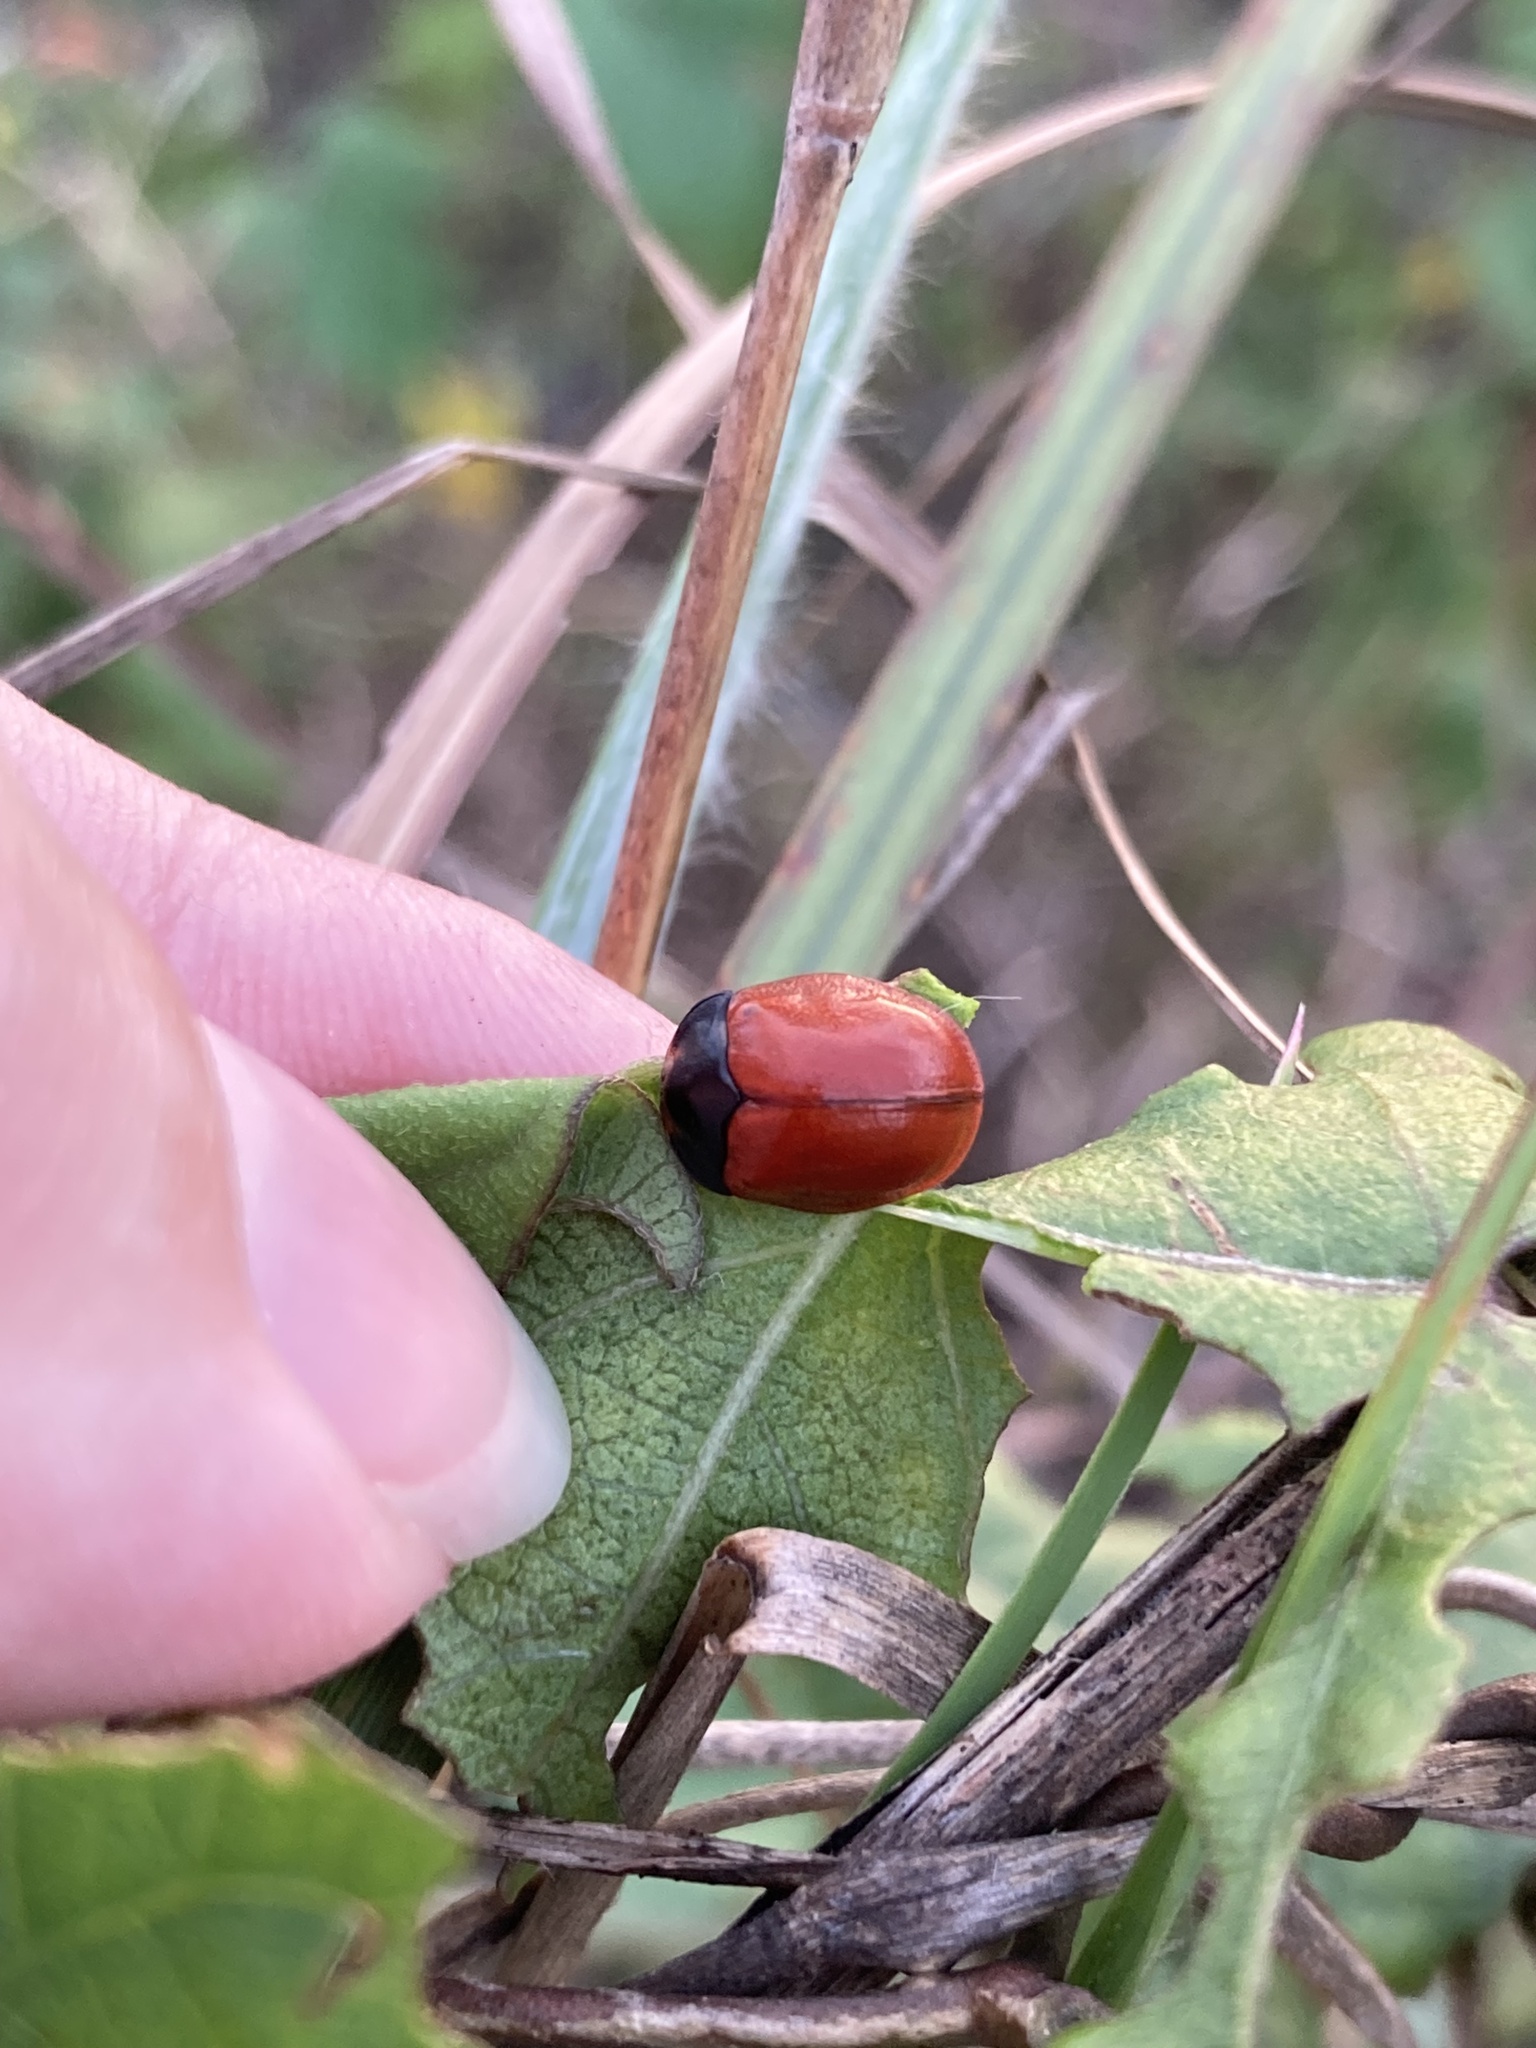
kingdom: Animalia
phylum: Arthropoda
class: Insecta
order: Coleoptera
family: Chrysomelidae
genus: Chelymorpha
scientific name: Chelymorpha cribraria
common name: Tortoise beetle
